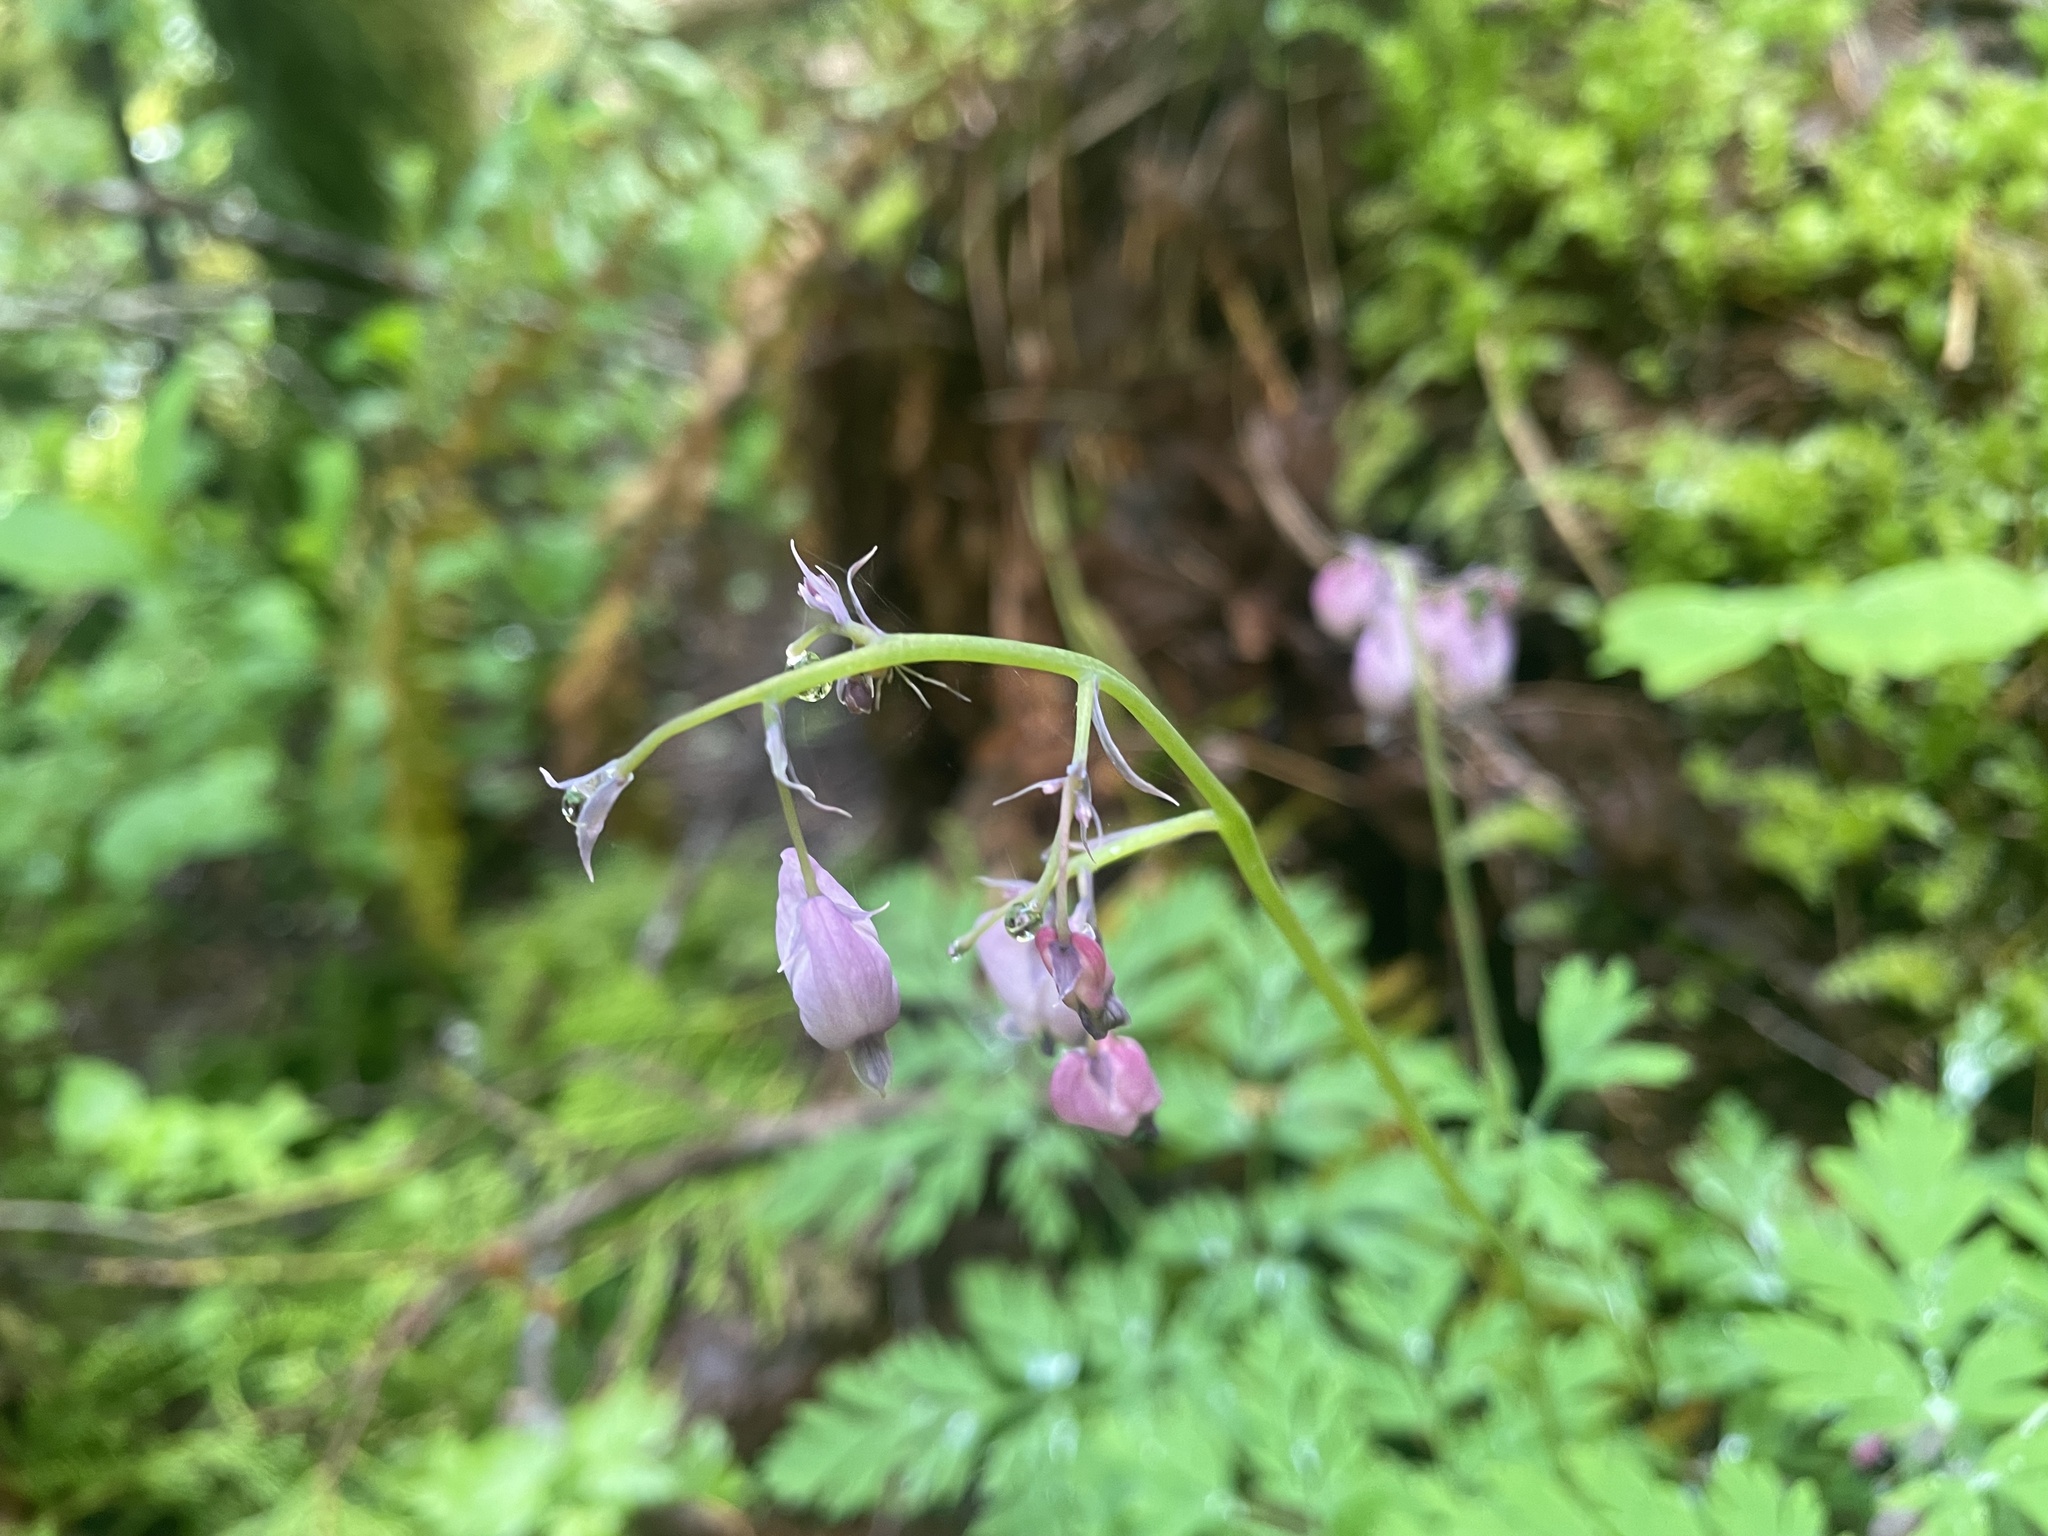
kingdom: Plantae
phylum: Tracheophyta
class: Magnoliopsida
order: Ranunculales
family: Papaveraceae
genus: Dicentra
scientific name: Dicentra formosa
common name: Bleeding-heart
